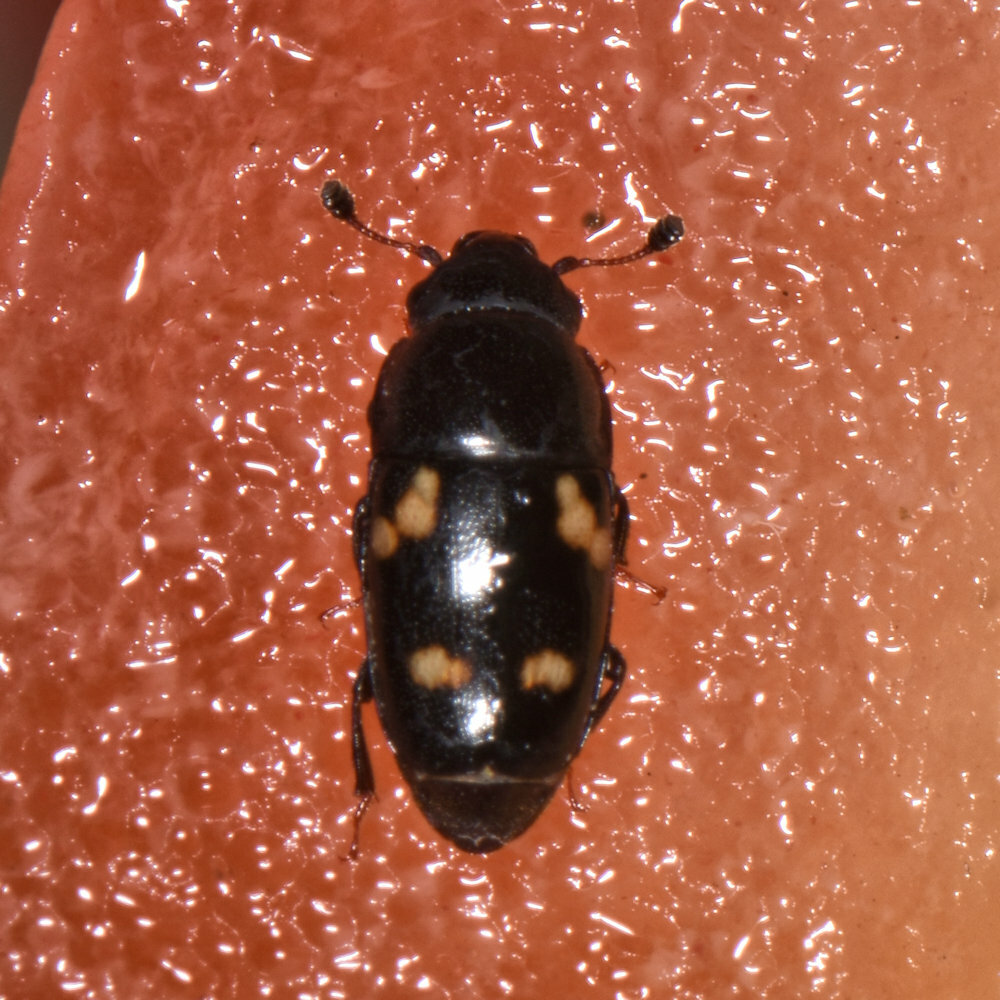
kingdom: Animalia
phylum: Arthropoda
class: Insecta
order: Coleoptera
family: Nitidulidae
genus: Glischrochilus
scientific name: Glischrochilus quadrisignatus
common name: Picnic beetle
